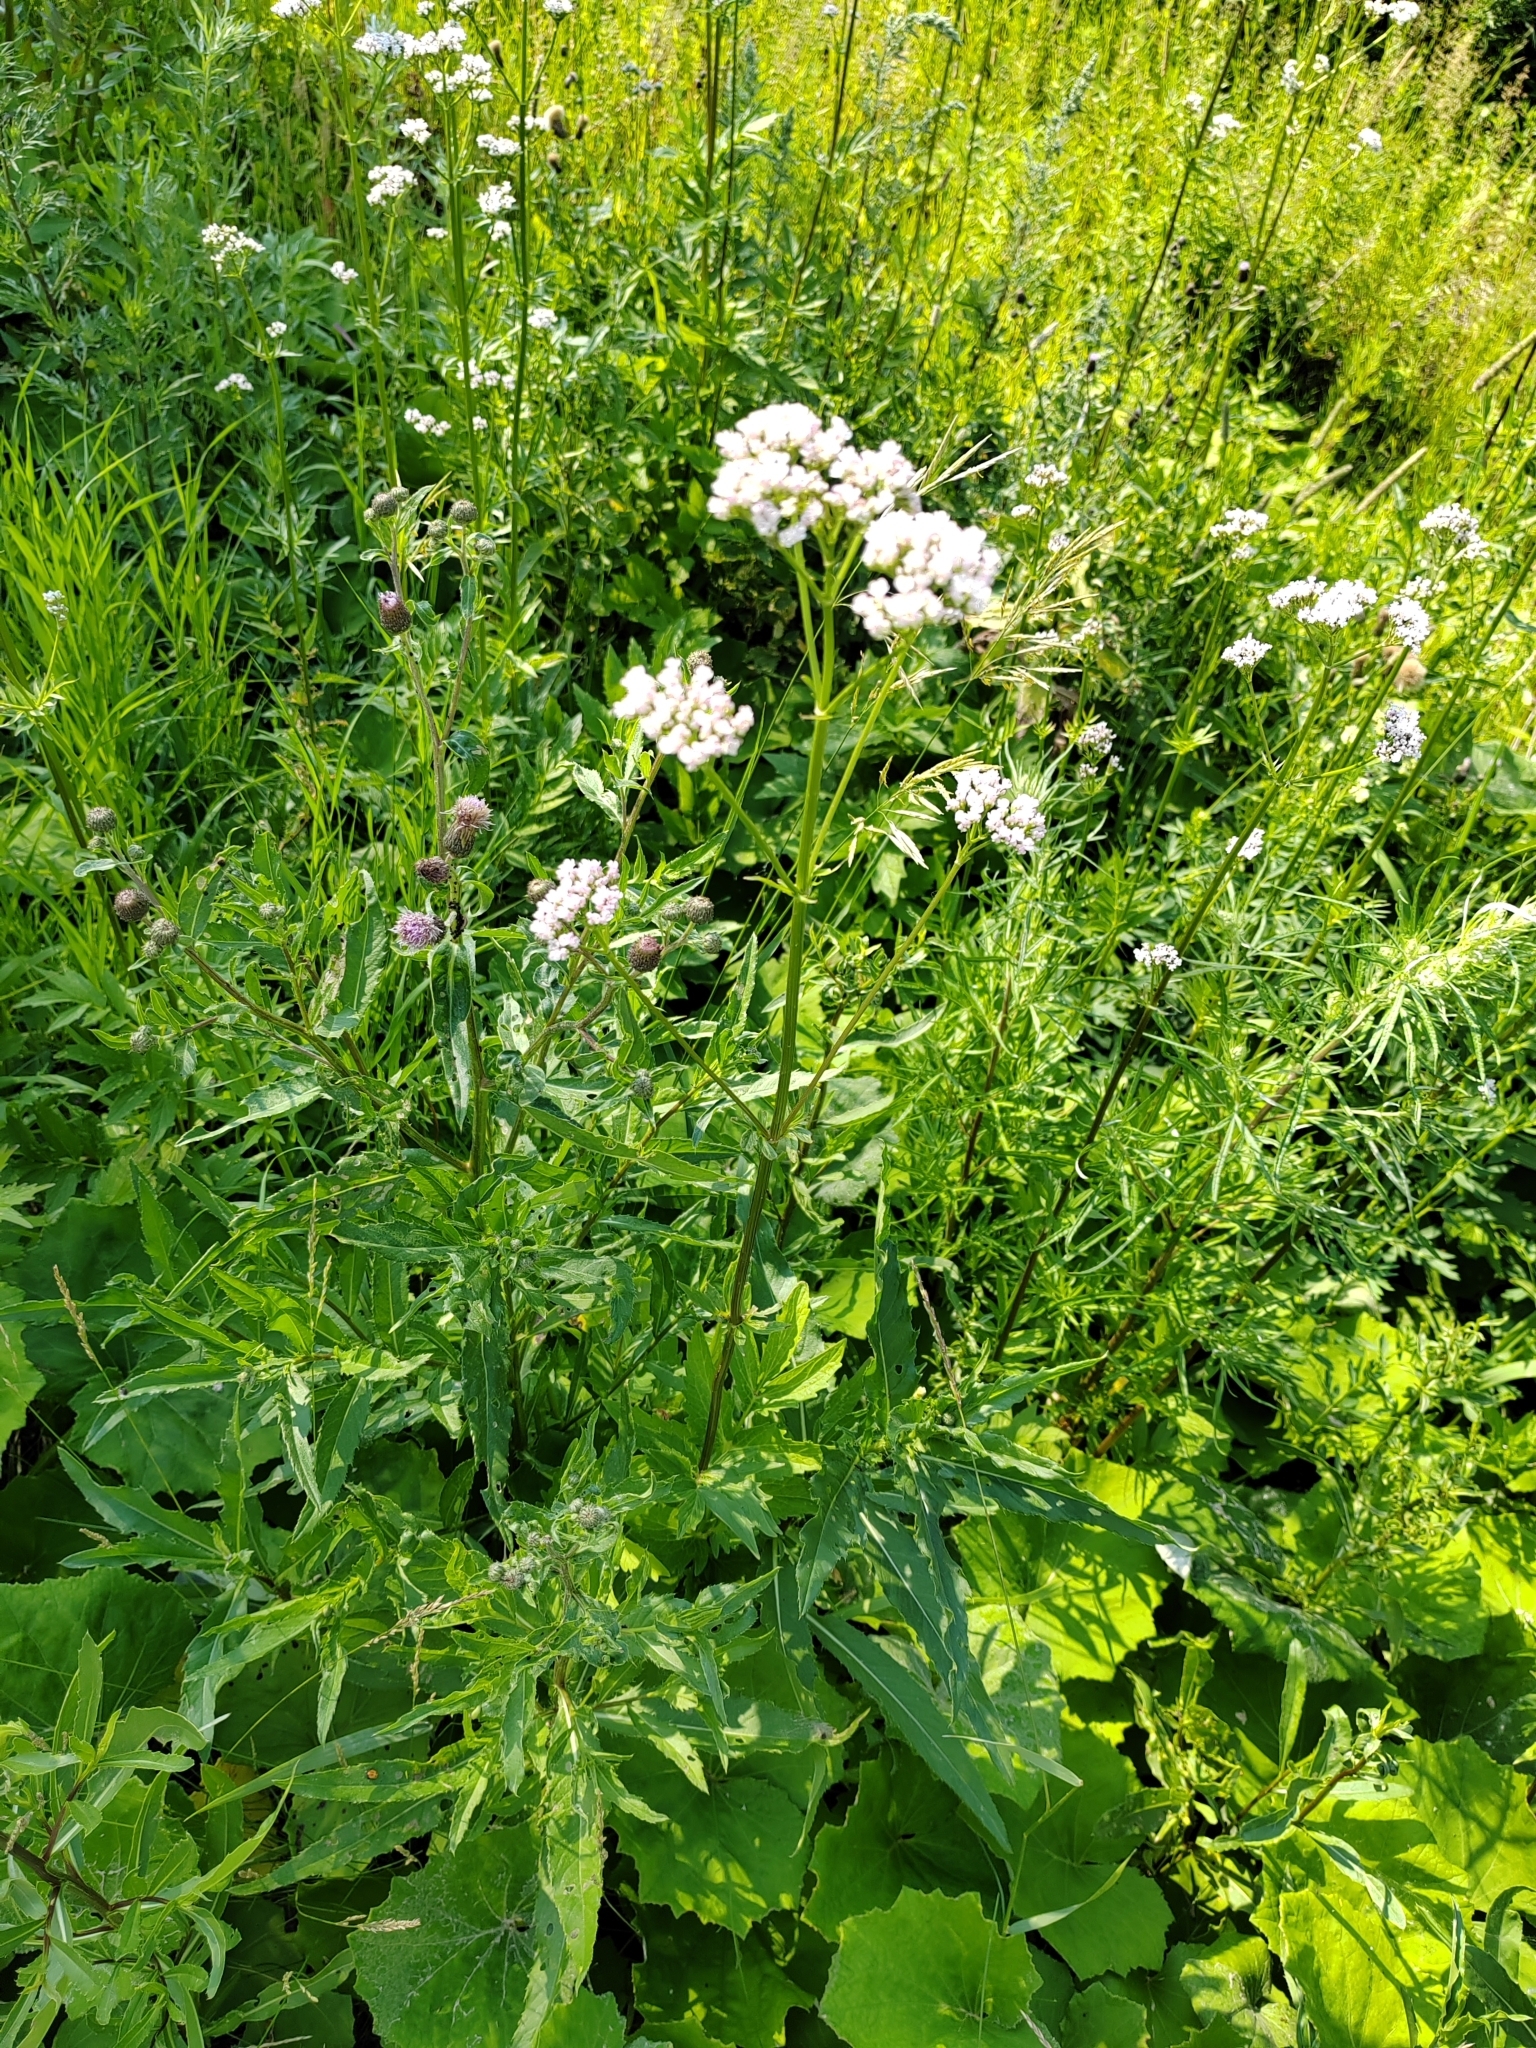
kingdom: Plantae
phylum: Tracheophyta
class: Magnoliopsida
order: Dipsacales
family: Caprifoliaceae
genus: Valeriana
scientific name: Valeriana wolgensis
